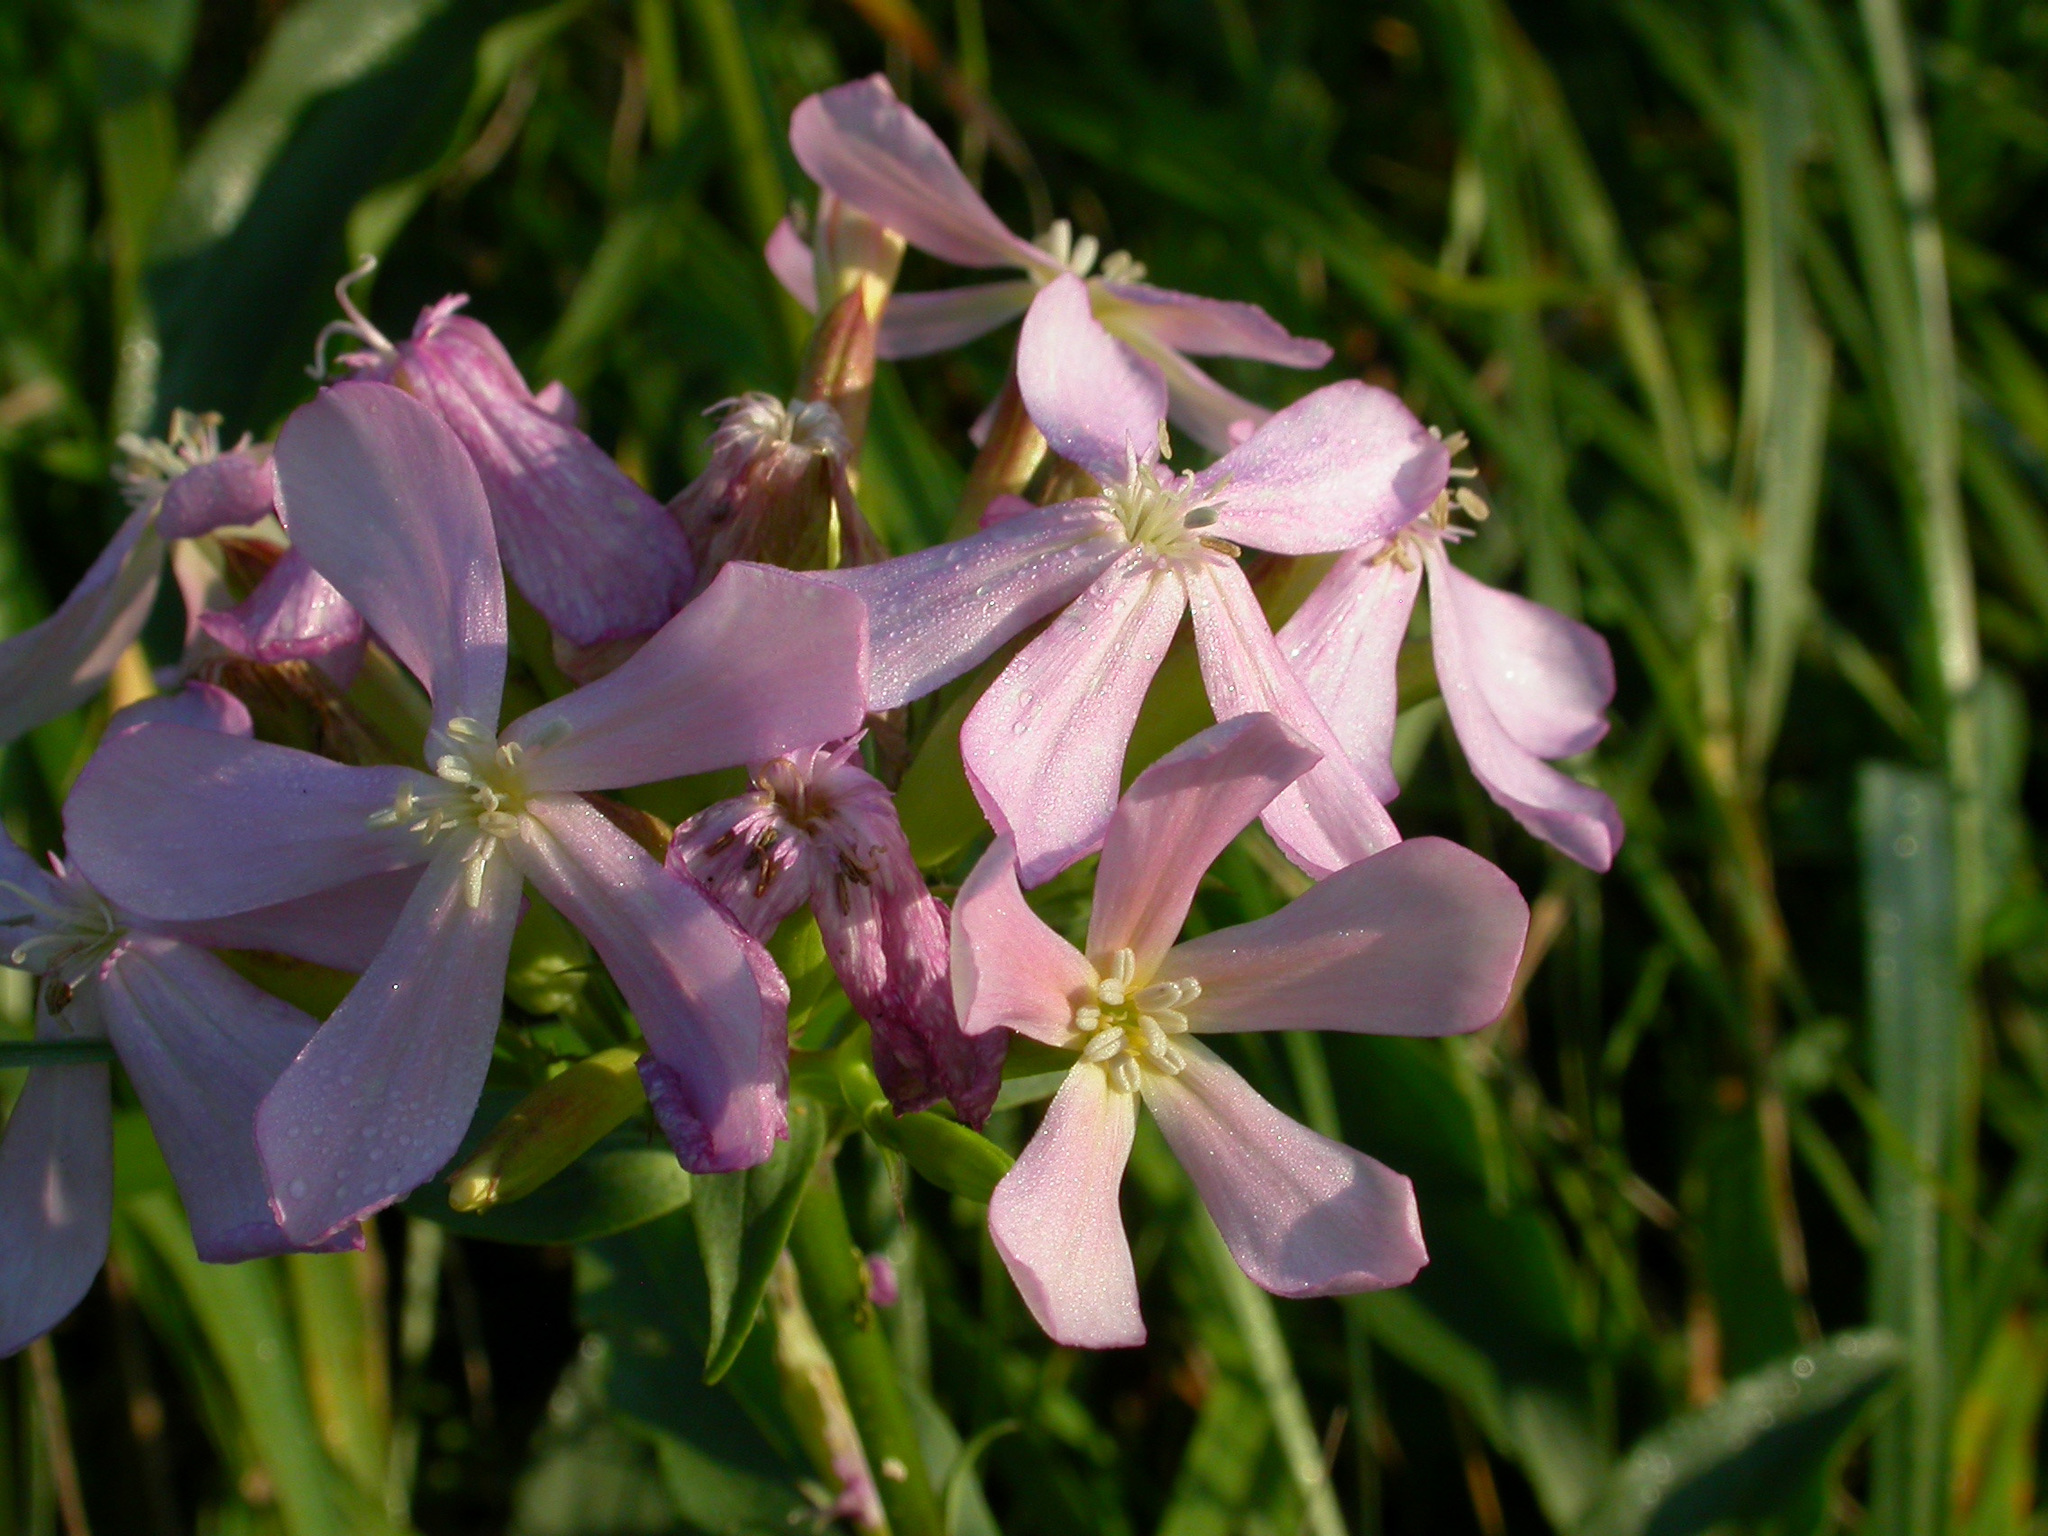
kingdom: Plantae
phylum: Tracheophyta
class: Magnoliopsida
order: Caryophyllales
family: Caryophyllaceae
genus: Saponaria
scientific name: Saponaria officinalis
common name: Soapwort
